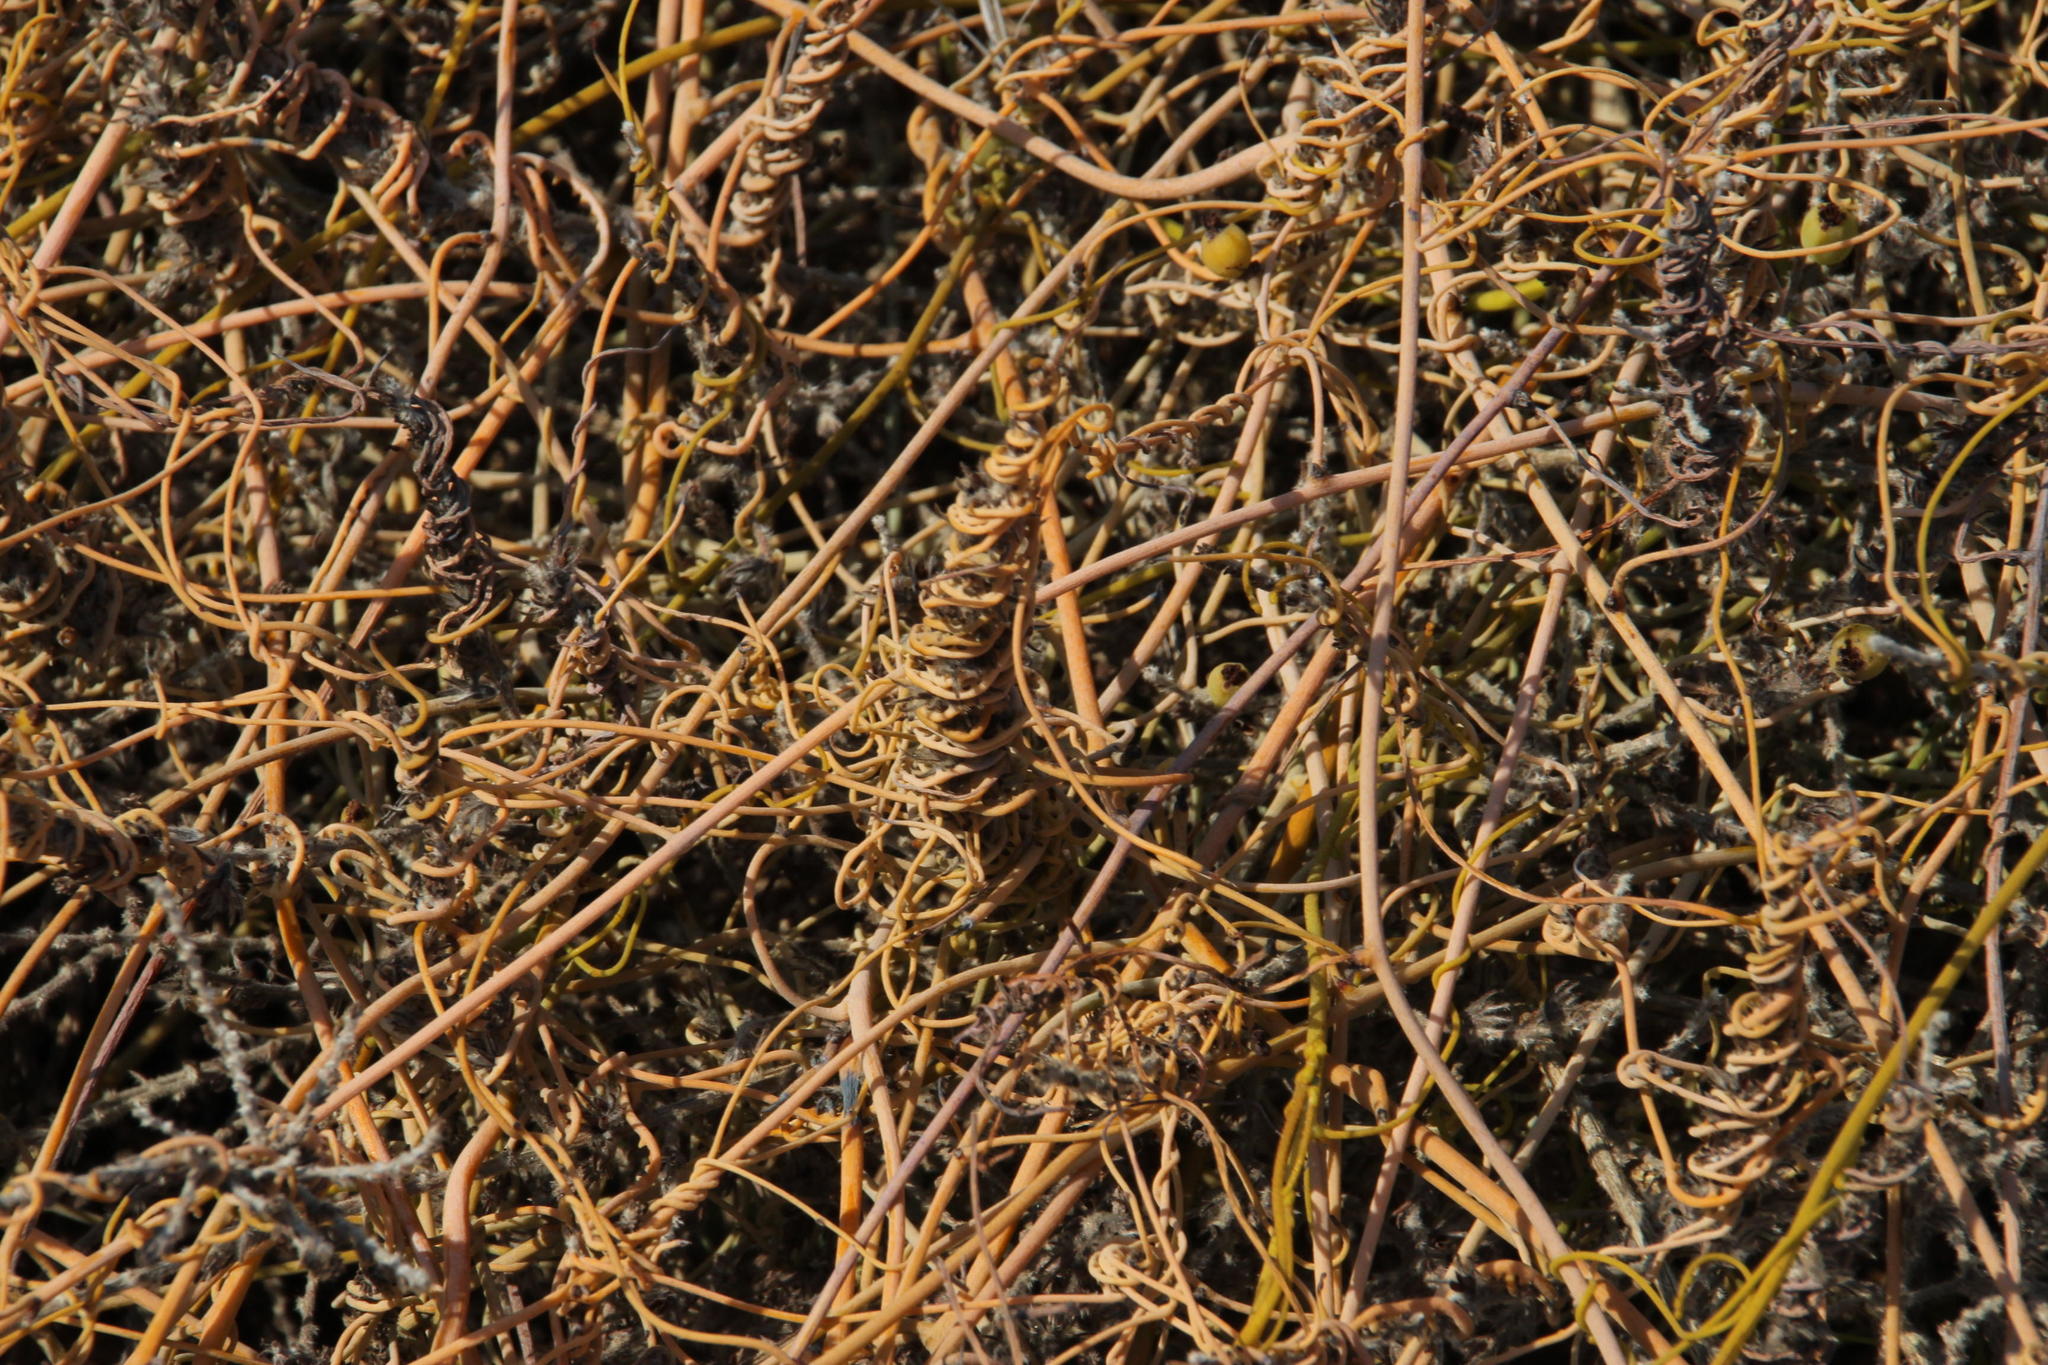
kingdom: Plantae
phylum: Tracheophyta
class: Magnoliopsida
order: Laurales
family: Lauraceae
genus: Cassytha
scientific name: Cassytha ciliolata
